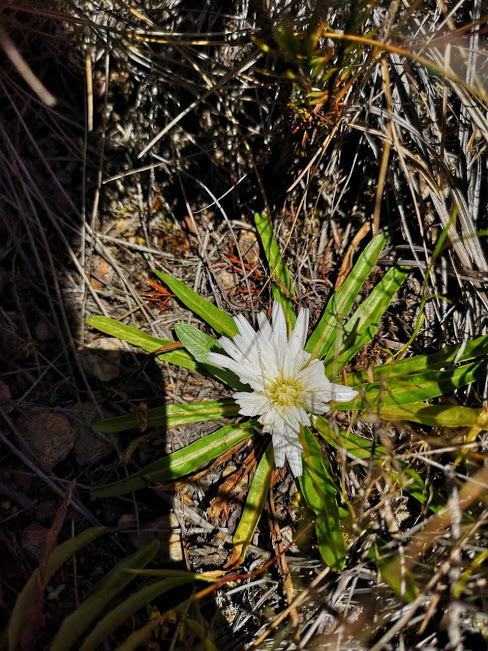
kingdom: Plantae
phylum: Tracheophyta
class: Magnoliopsida
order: Asterales
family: Asteraceae
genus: Hypochaeris
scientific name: Hypochaeris sessiliflora
